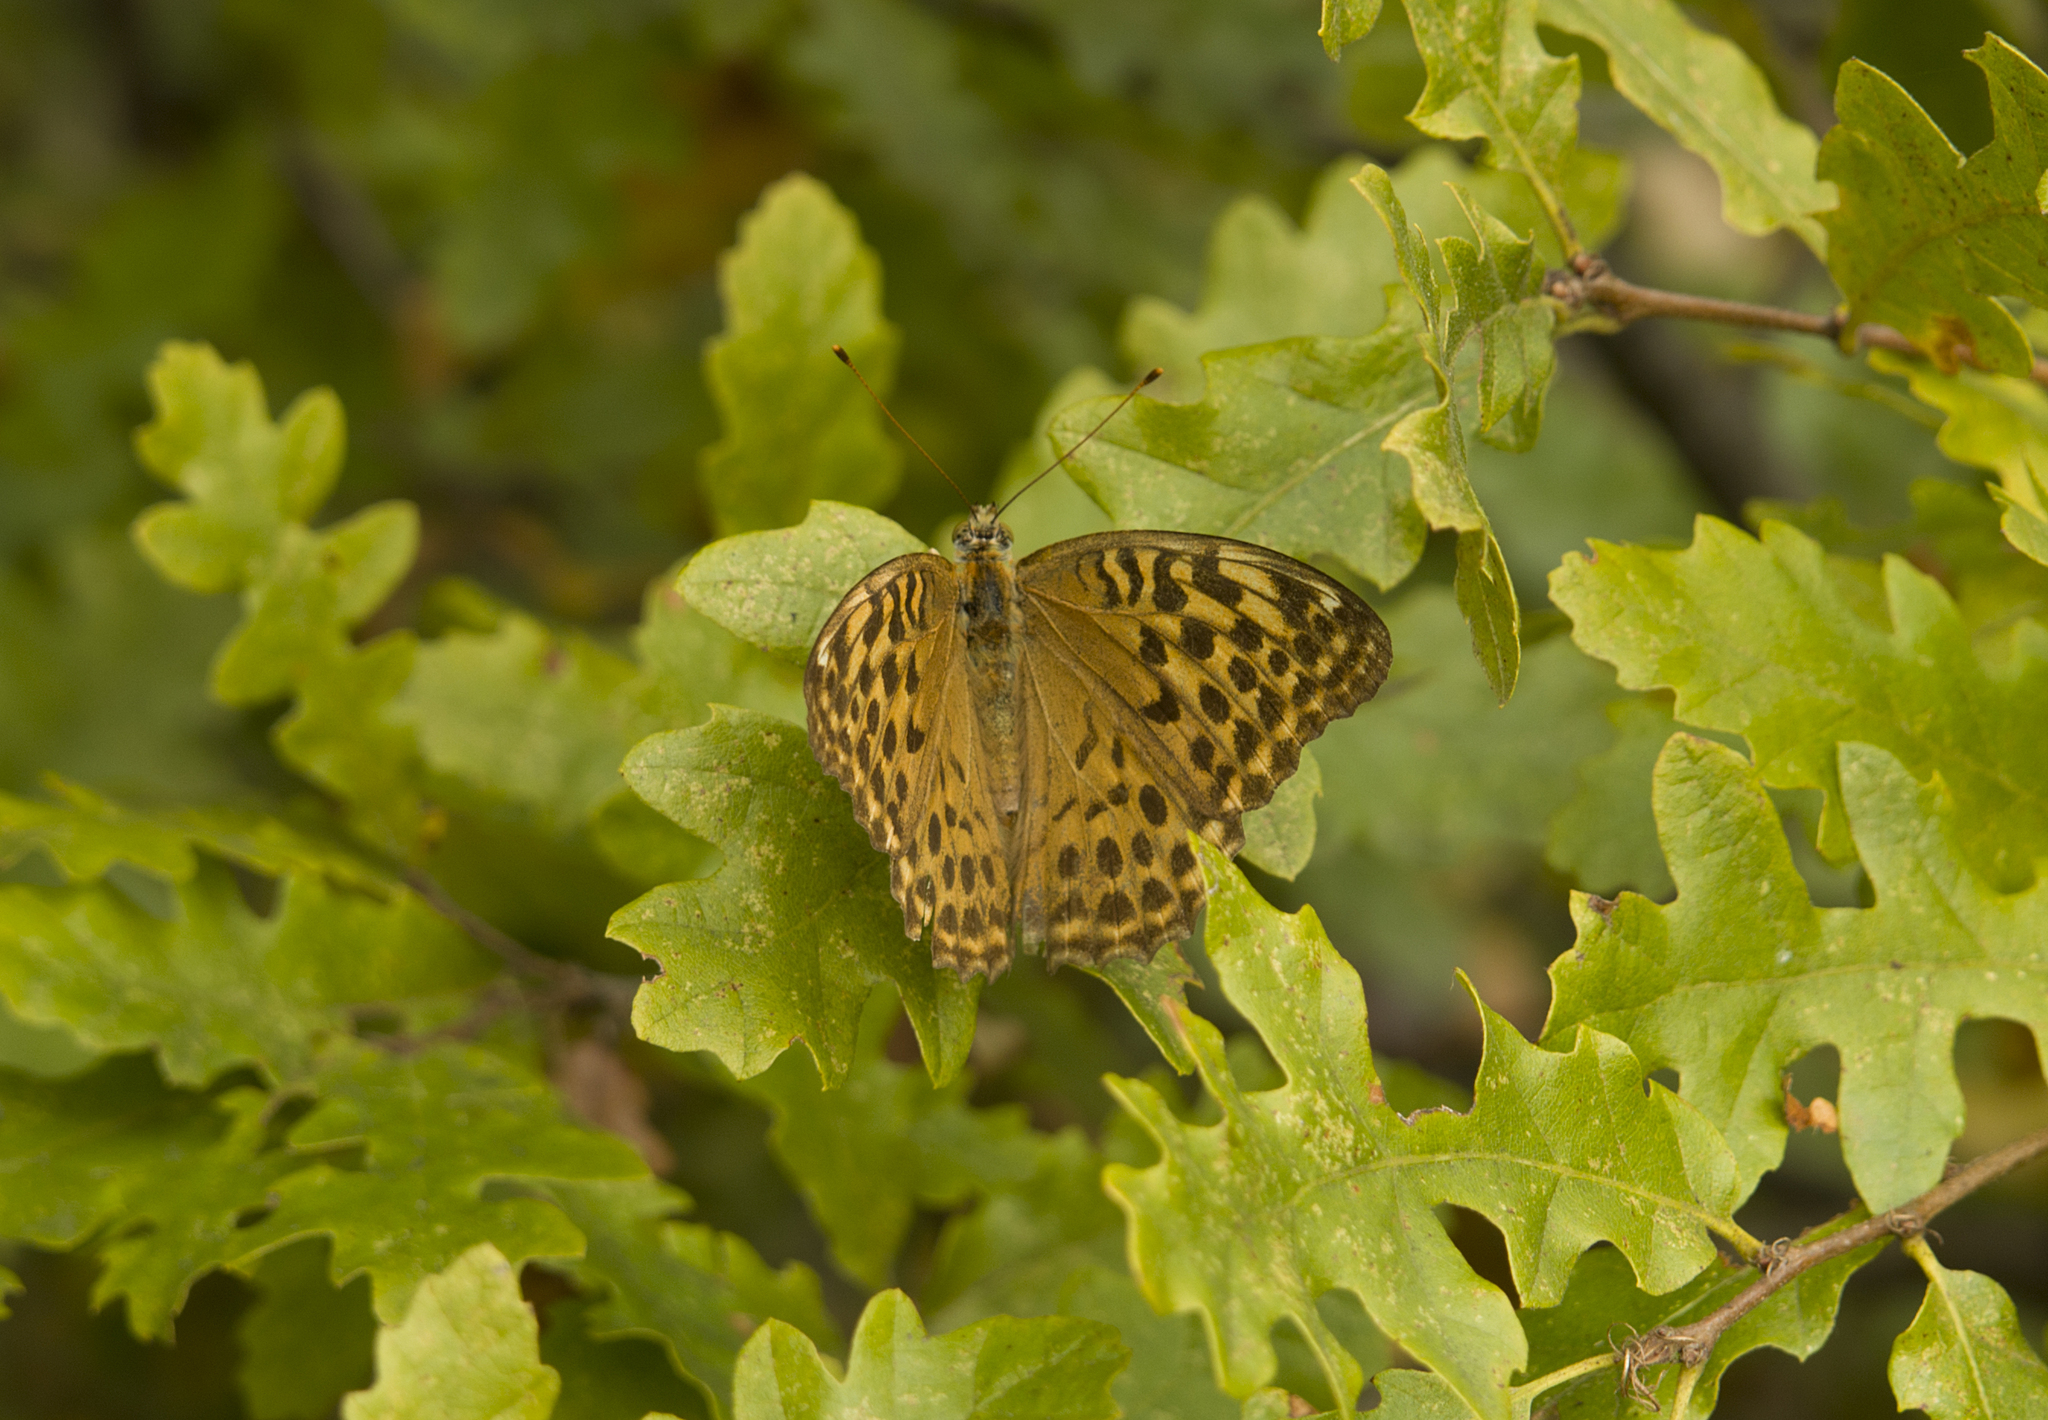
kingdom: Animalia
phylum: Arthropoda
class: Insecta
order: Lepidoptera
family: Nymphalidae
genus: Argynnis
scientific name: Argynnis paphia
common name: Silver-washed fritillary
